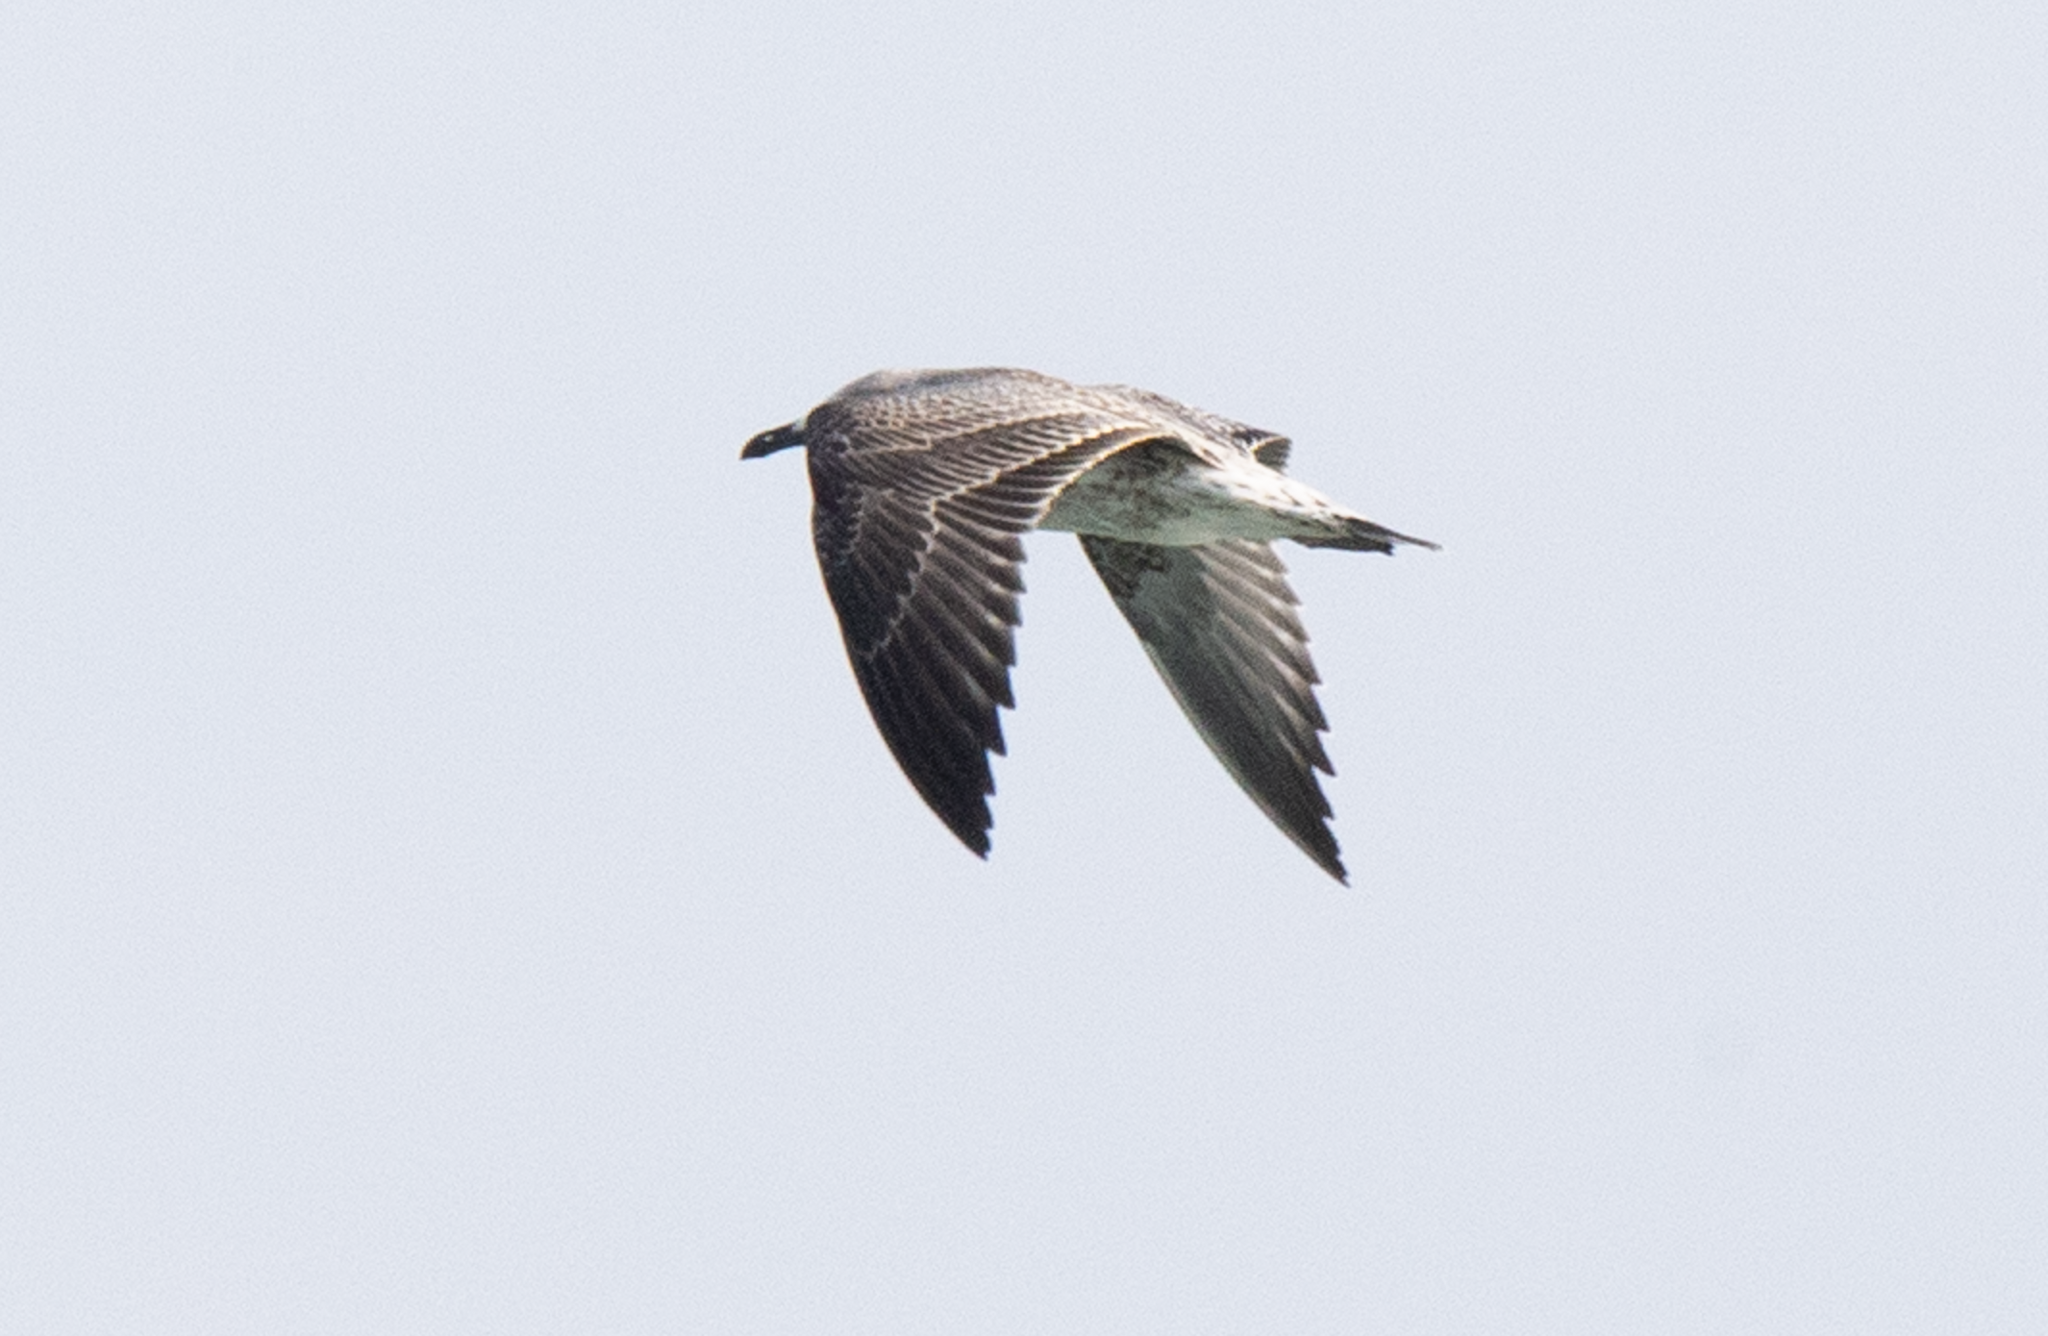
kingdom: Animalia
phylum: Chordata
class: Aves
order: Charadriiformes
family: Laridae
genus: Larus
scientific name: Larus michahellis
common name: Yellow-legged gull
